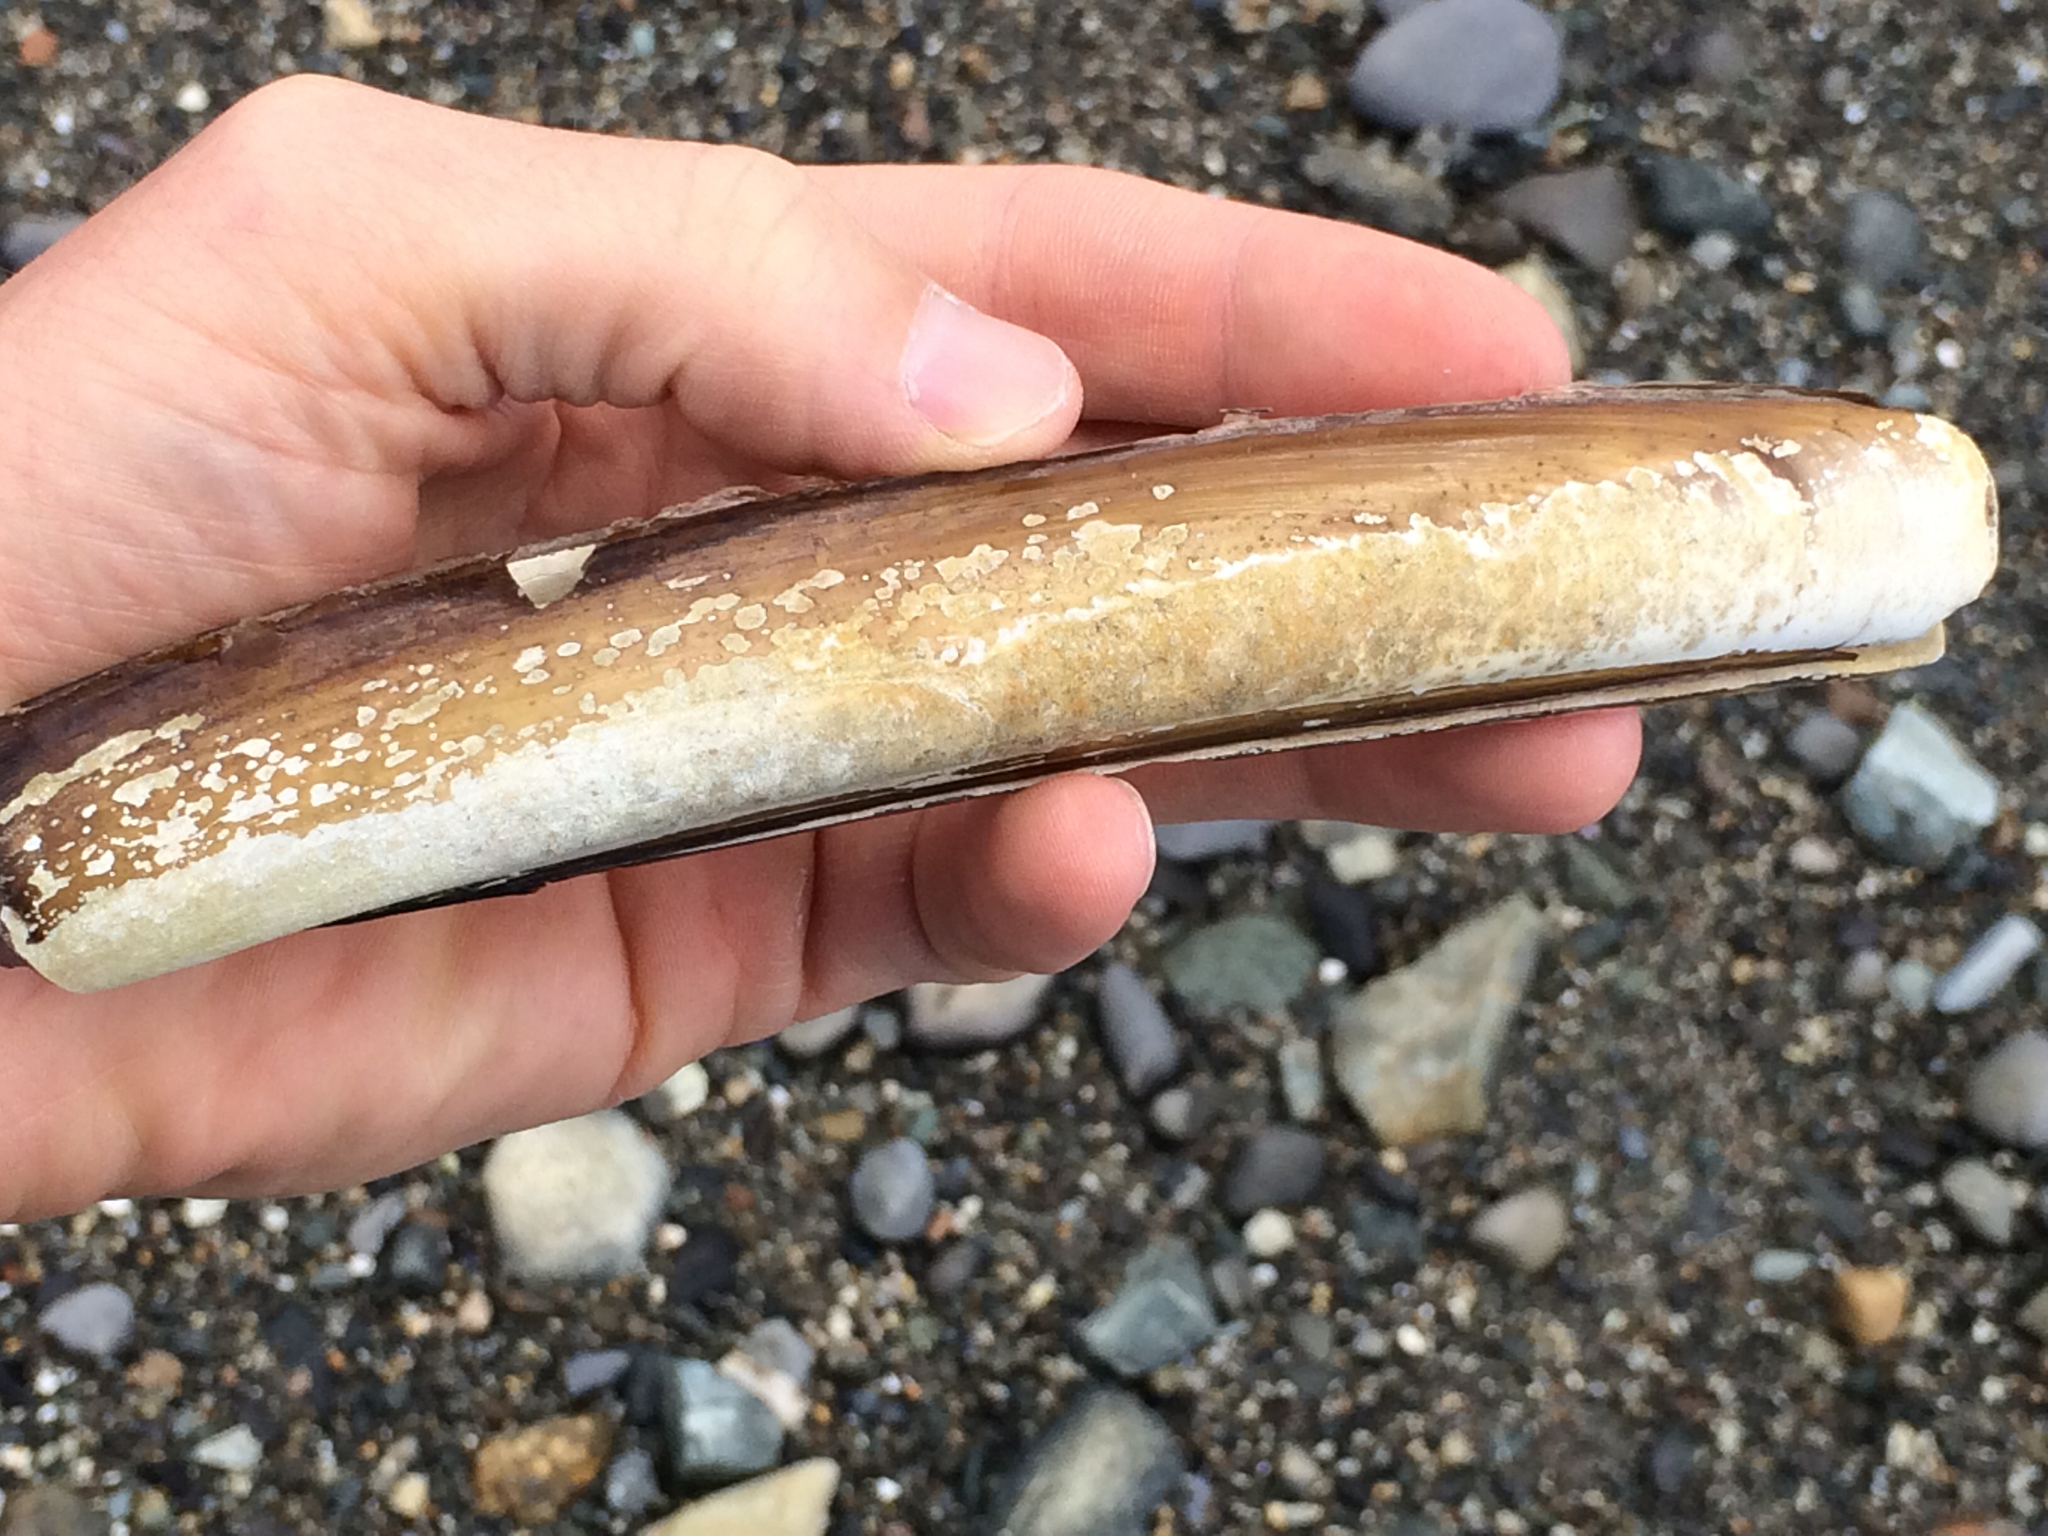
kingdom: Animalia
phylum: Mollusca
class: Bivalvia
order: Adapedonta
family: Pharidae
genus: Ensis
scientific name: Ensis leei
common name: American jack knife clam
